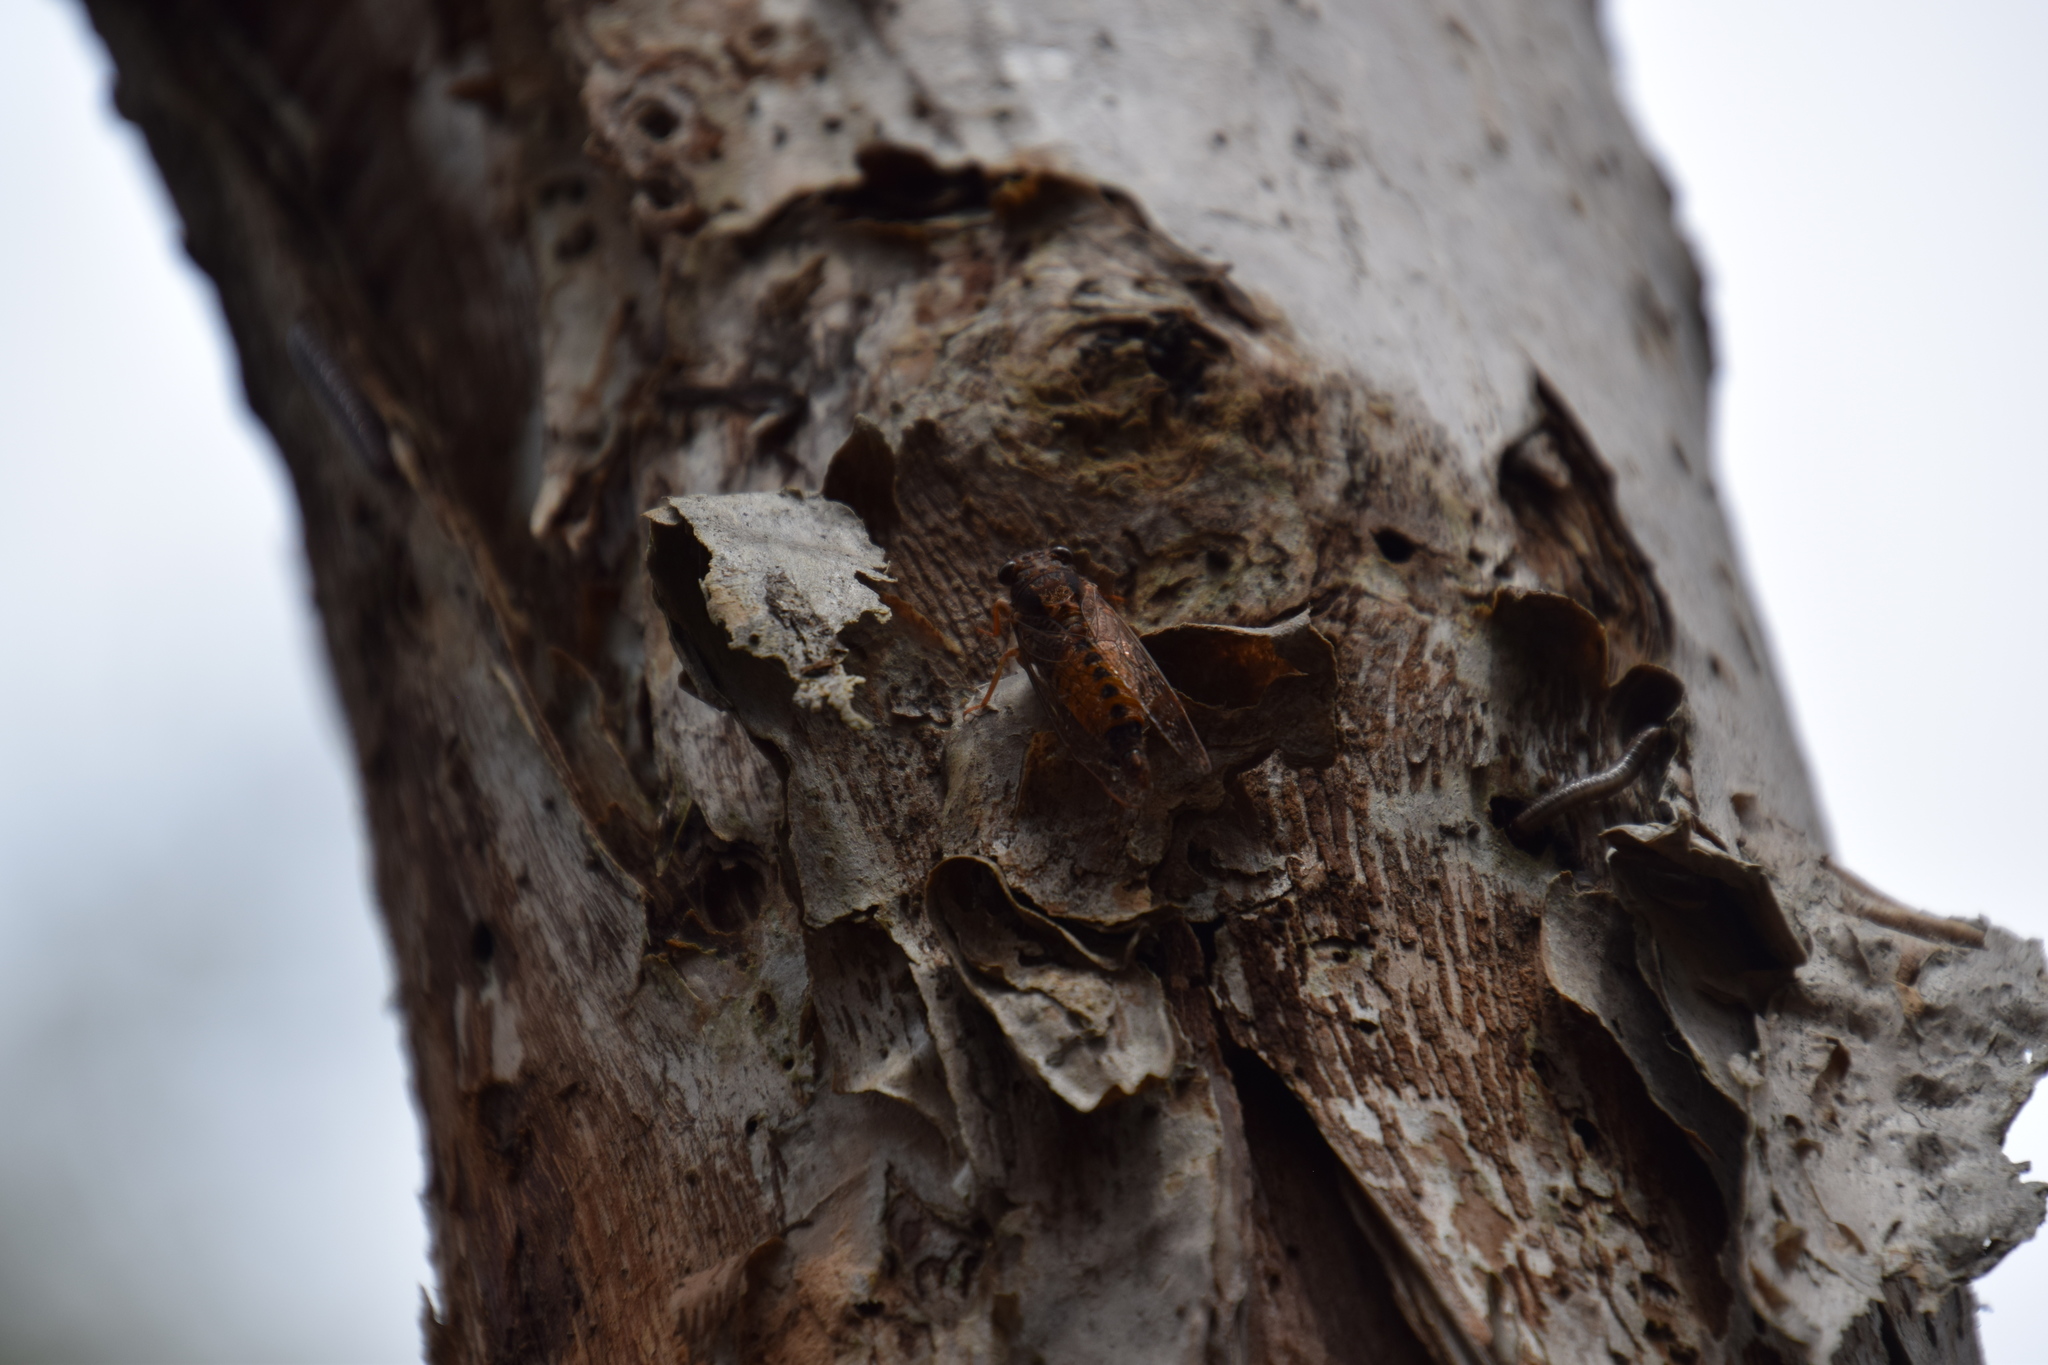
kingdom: Animalia
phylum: Arthropoda
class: Insecta
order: Hemiptera
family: Cicadidae
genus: Yoyetta
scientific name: Yoyetta cumberlandi
